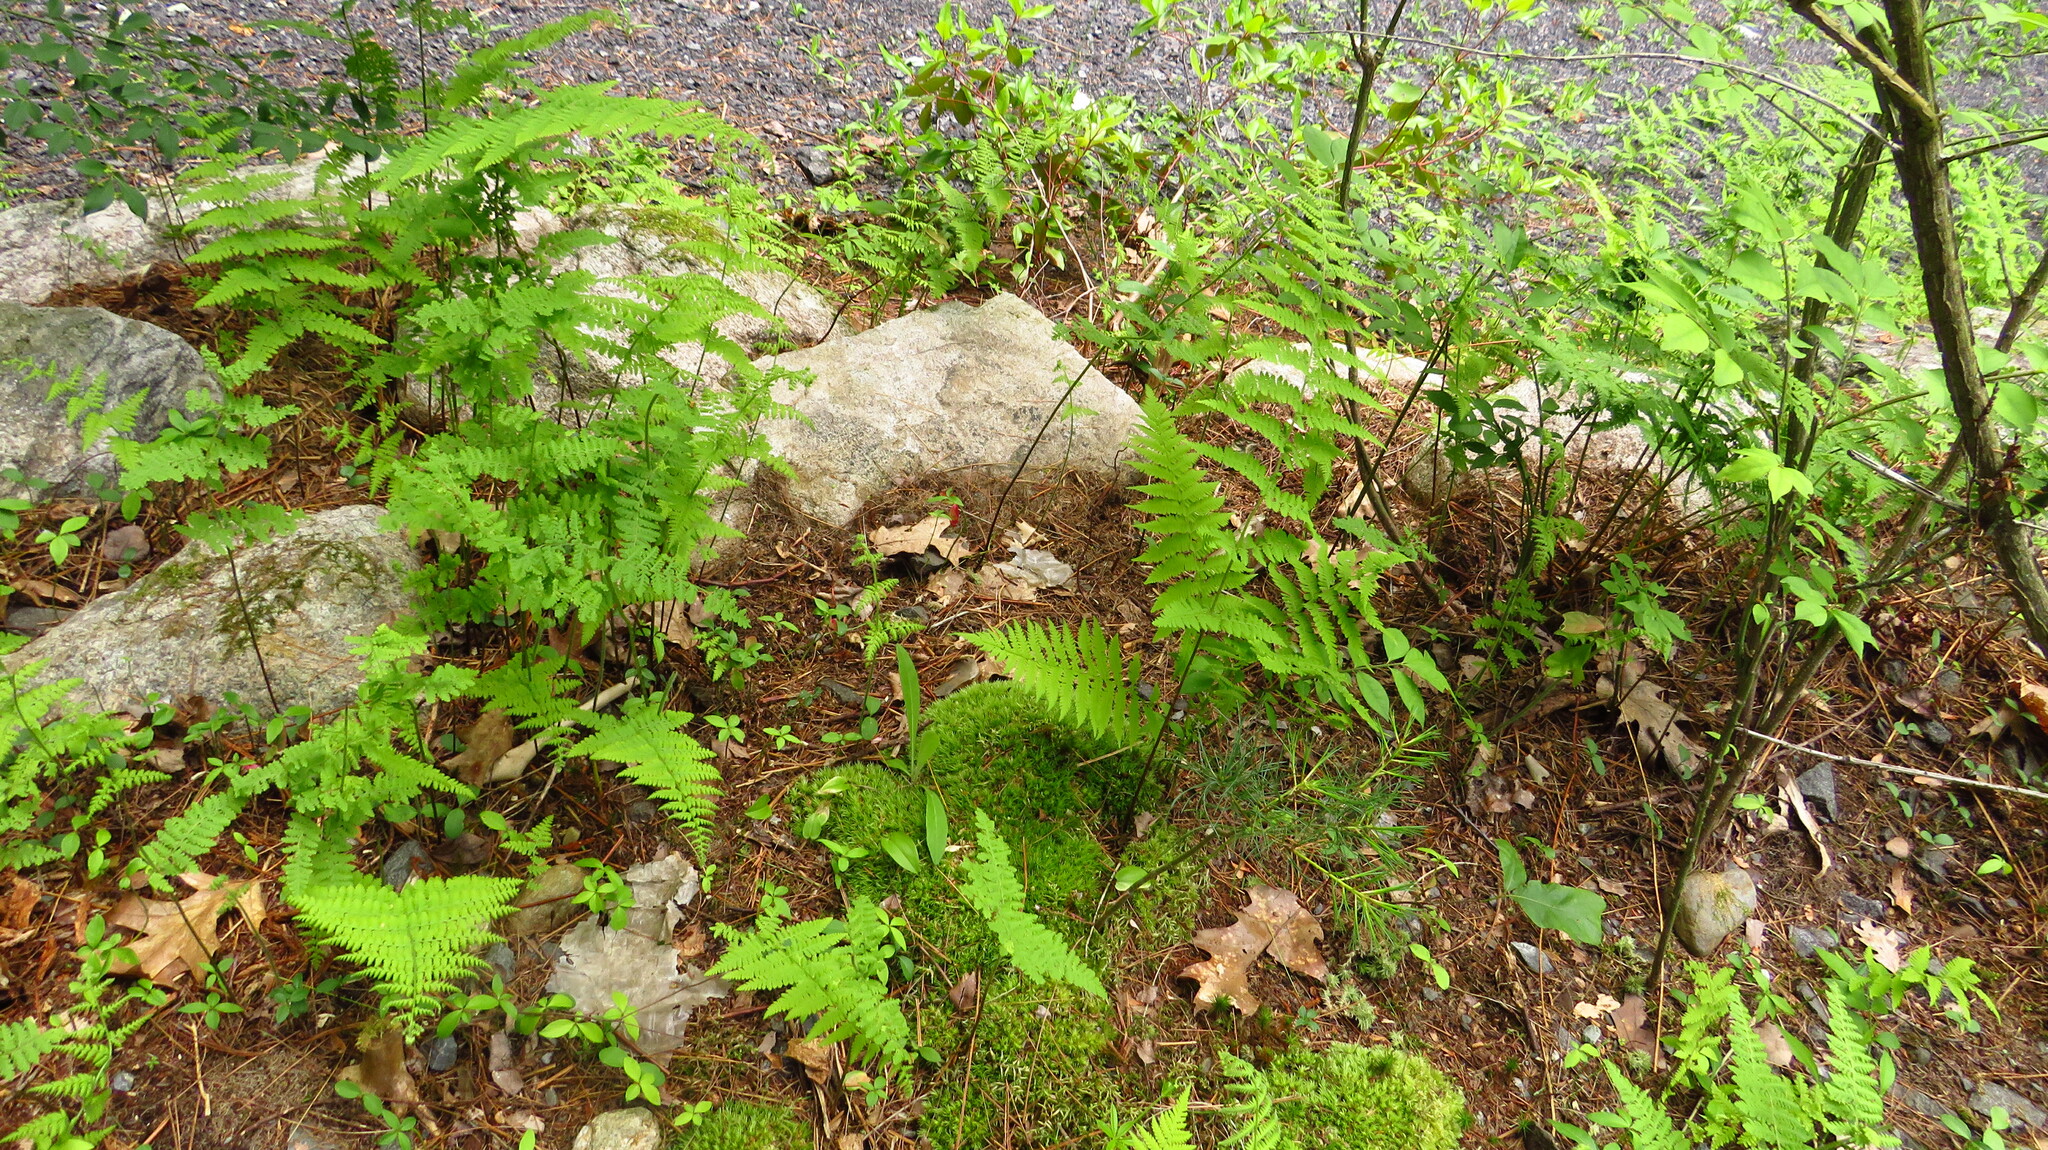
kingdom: Plantae
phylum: Tracheophyta
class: Polypodiopsida
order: Polypodiales
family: Dennstaedtiaceae
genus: Sitobolium
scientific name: Sitobolium punctilobum
